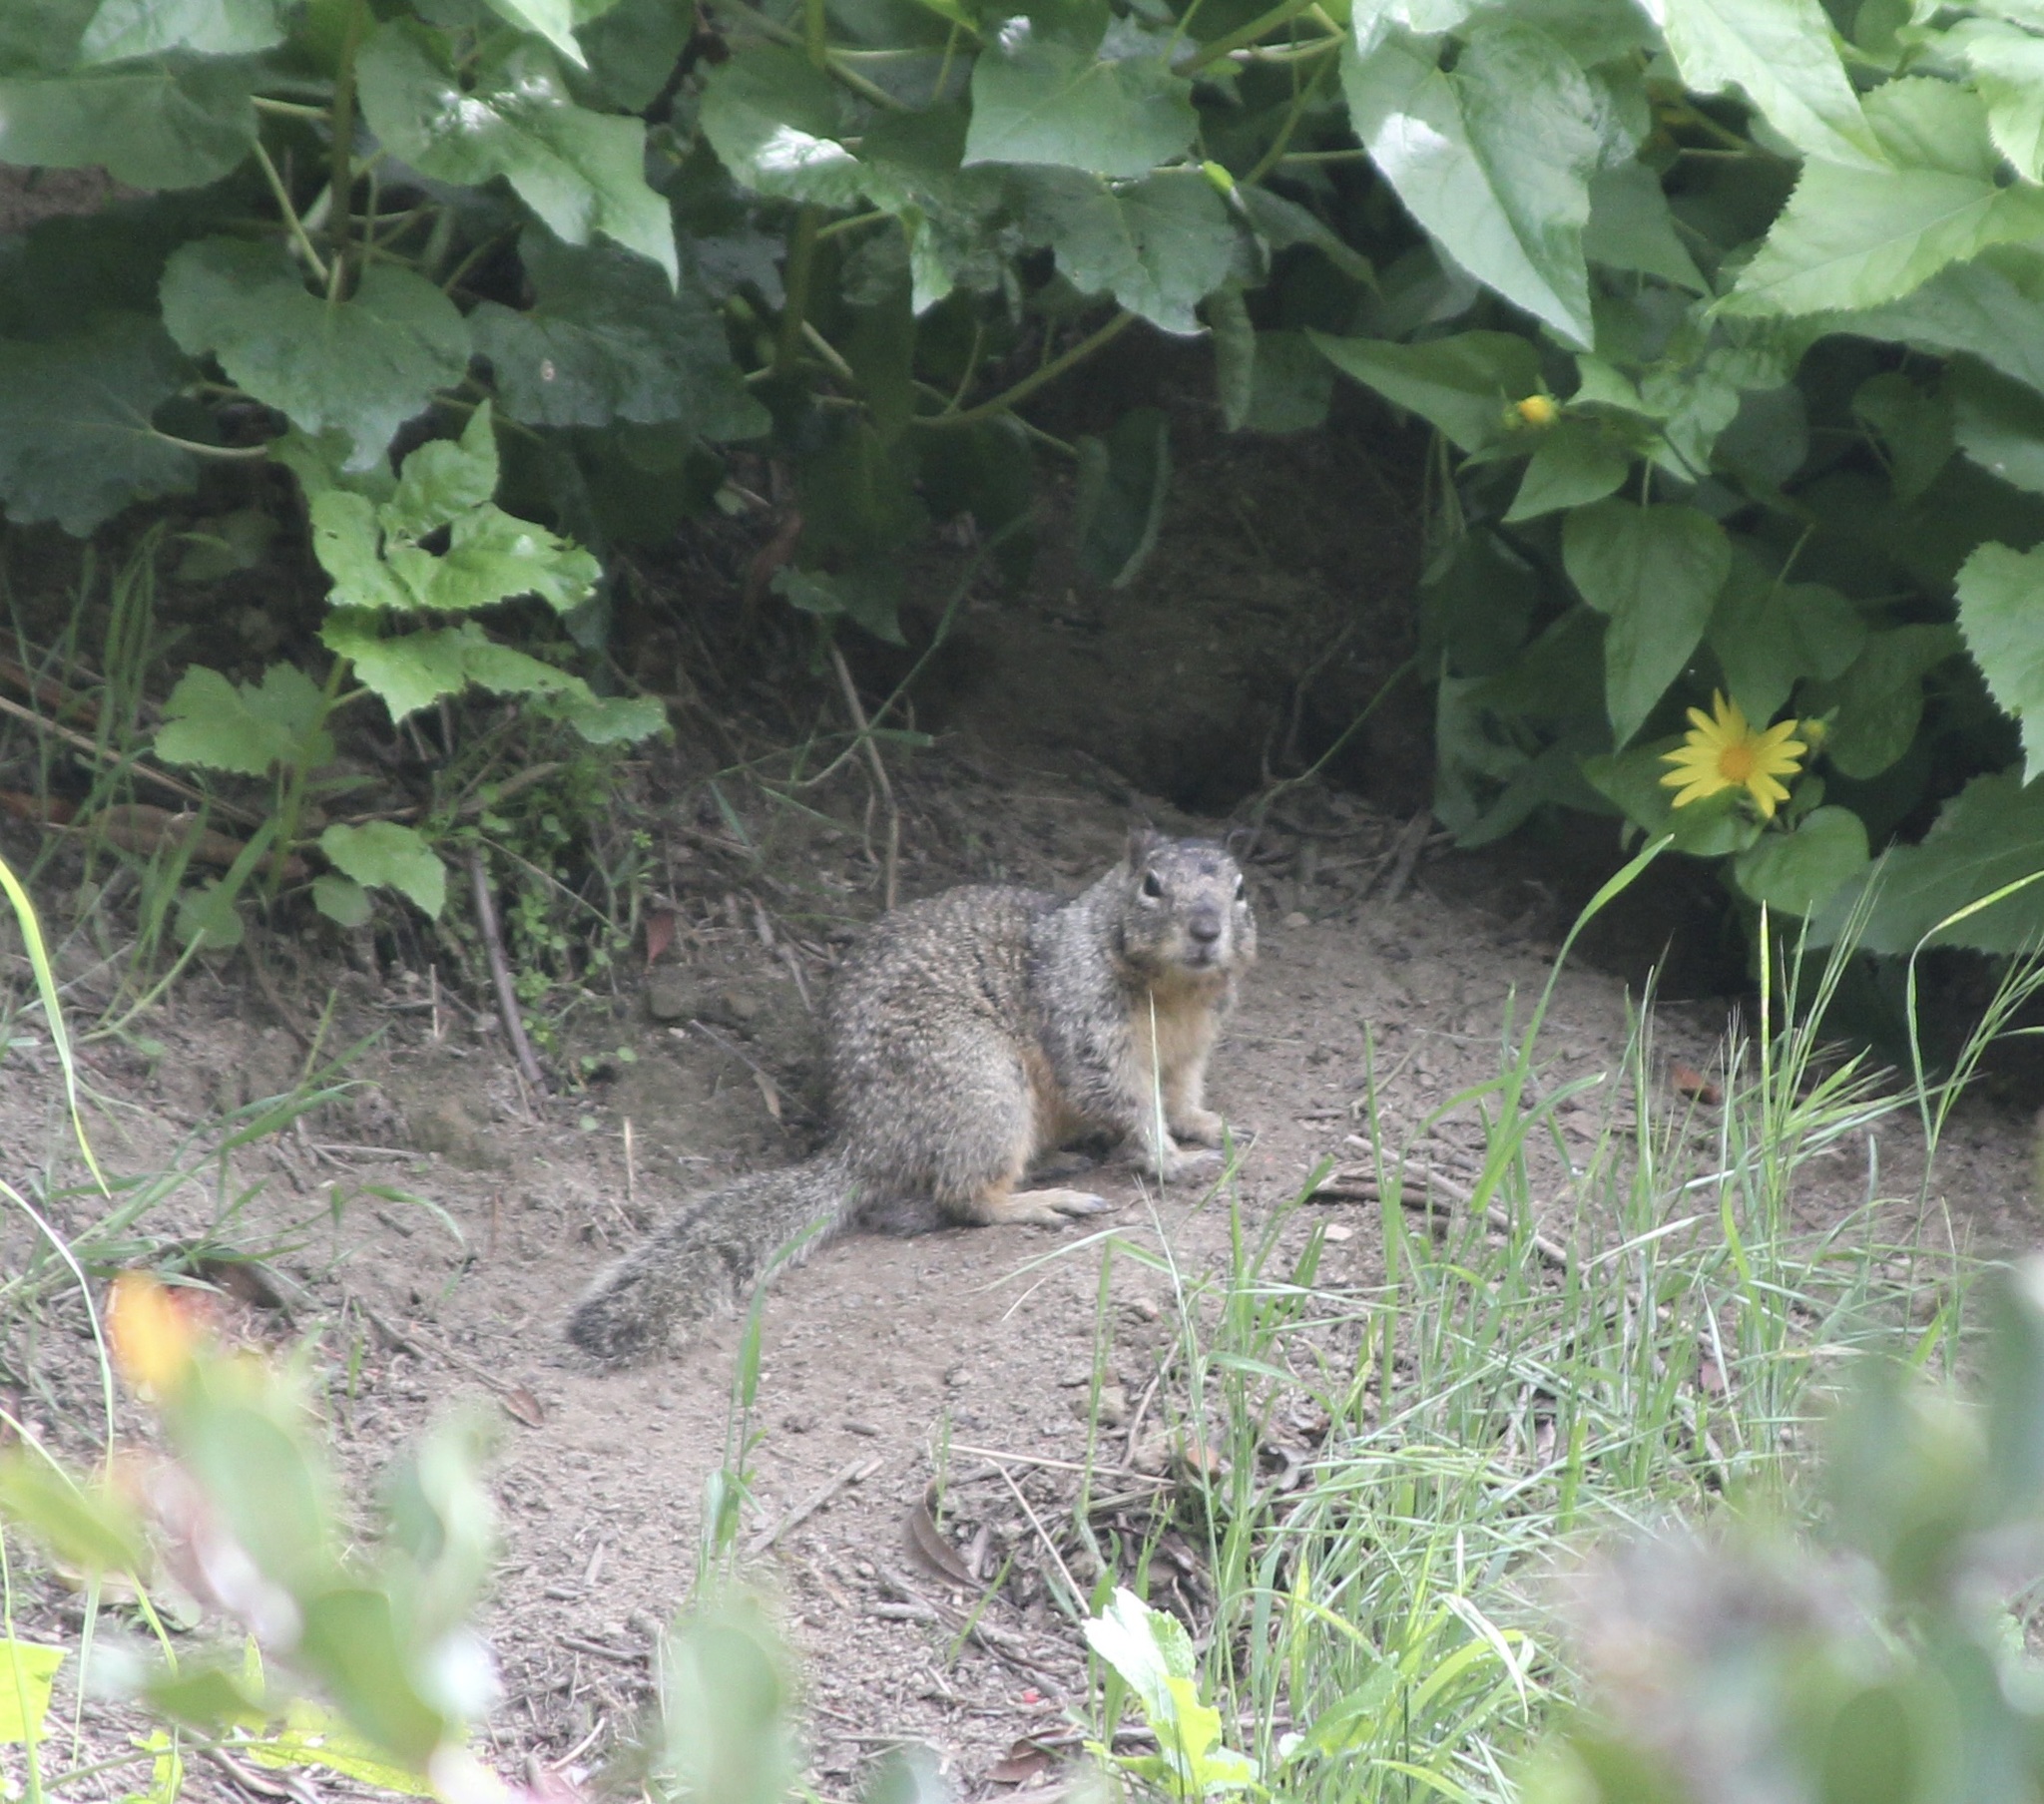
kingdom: Animalia
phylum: Chordata
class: Mammalia
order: Rodentia
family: Sciuridae
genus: Otospermophilus
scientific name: Otospermophilus beecheyi
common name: California ground squirrel
